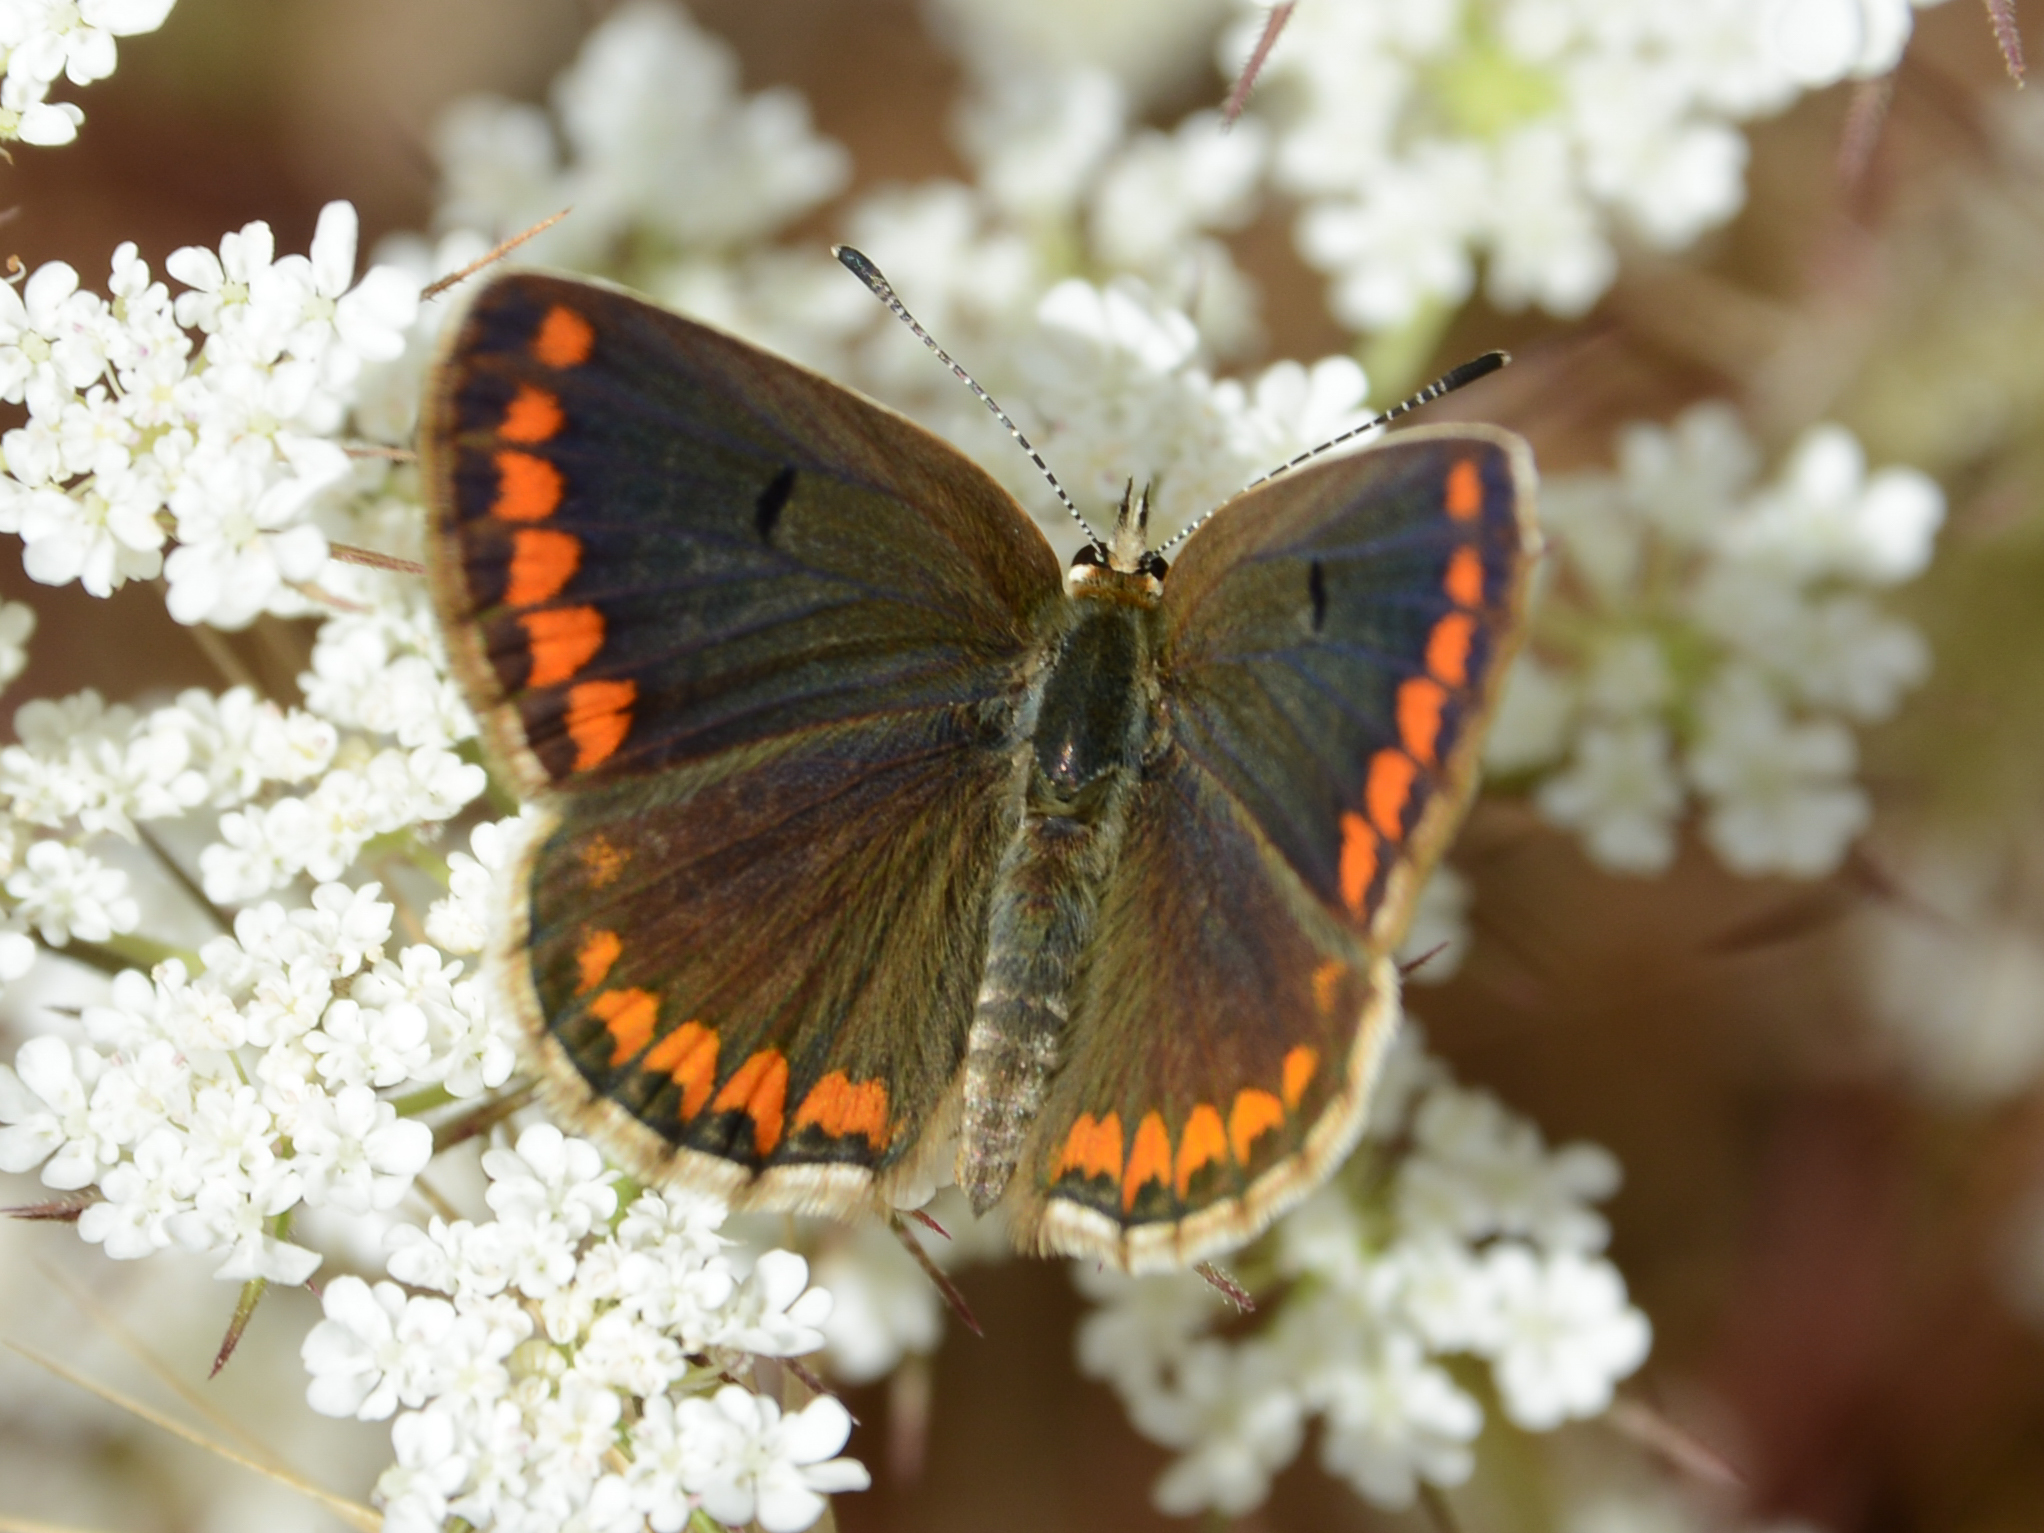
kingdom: Animalia
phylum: Arthropoda
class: Insecta
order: Lepidoptera
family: Lycaenidae
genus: Aricia
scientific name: Aricia agestis
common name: Brown argus
